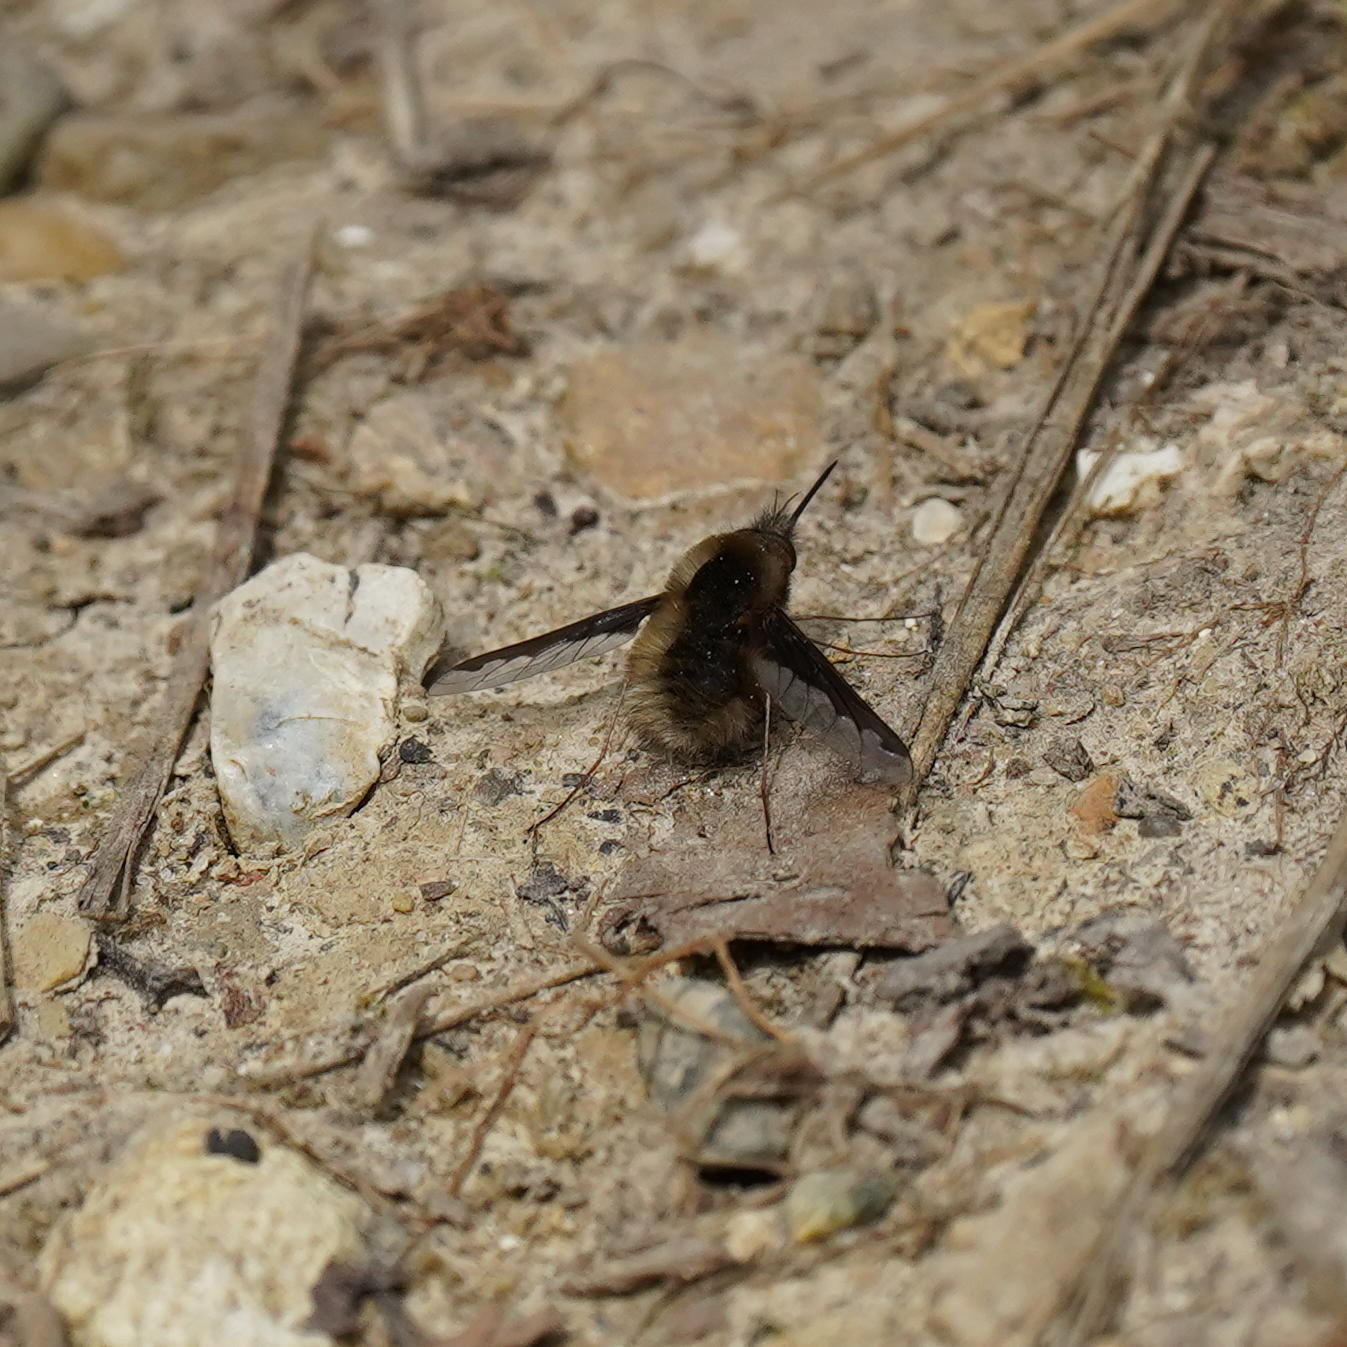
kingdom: Animalia
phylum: Arthropoda
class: Insecta
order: Diptera
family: Bombyliidae
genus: Bombylius
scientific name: Bombylius major
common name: Bee fly
